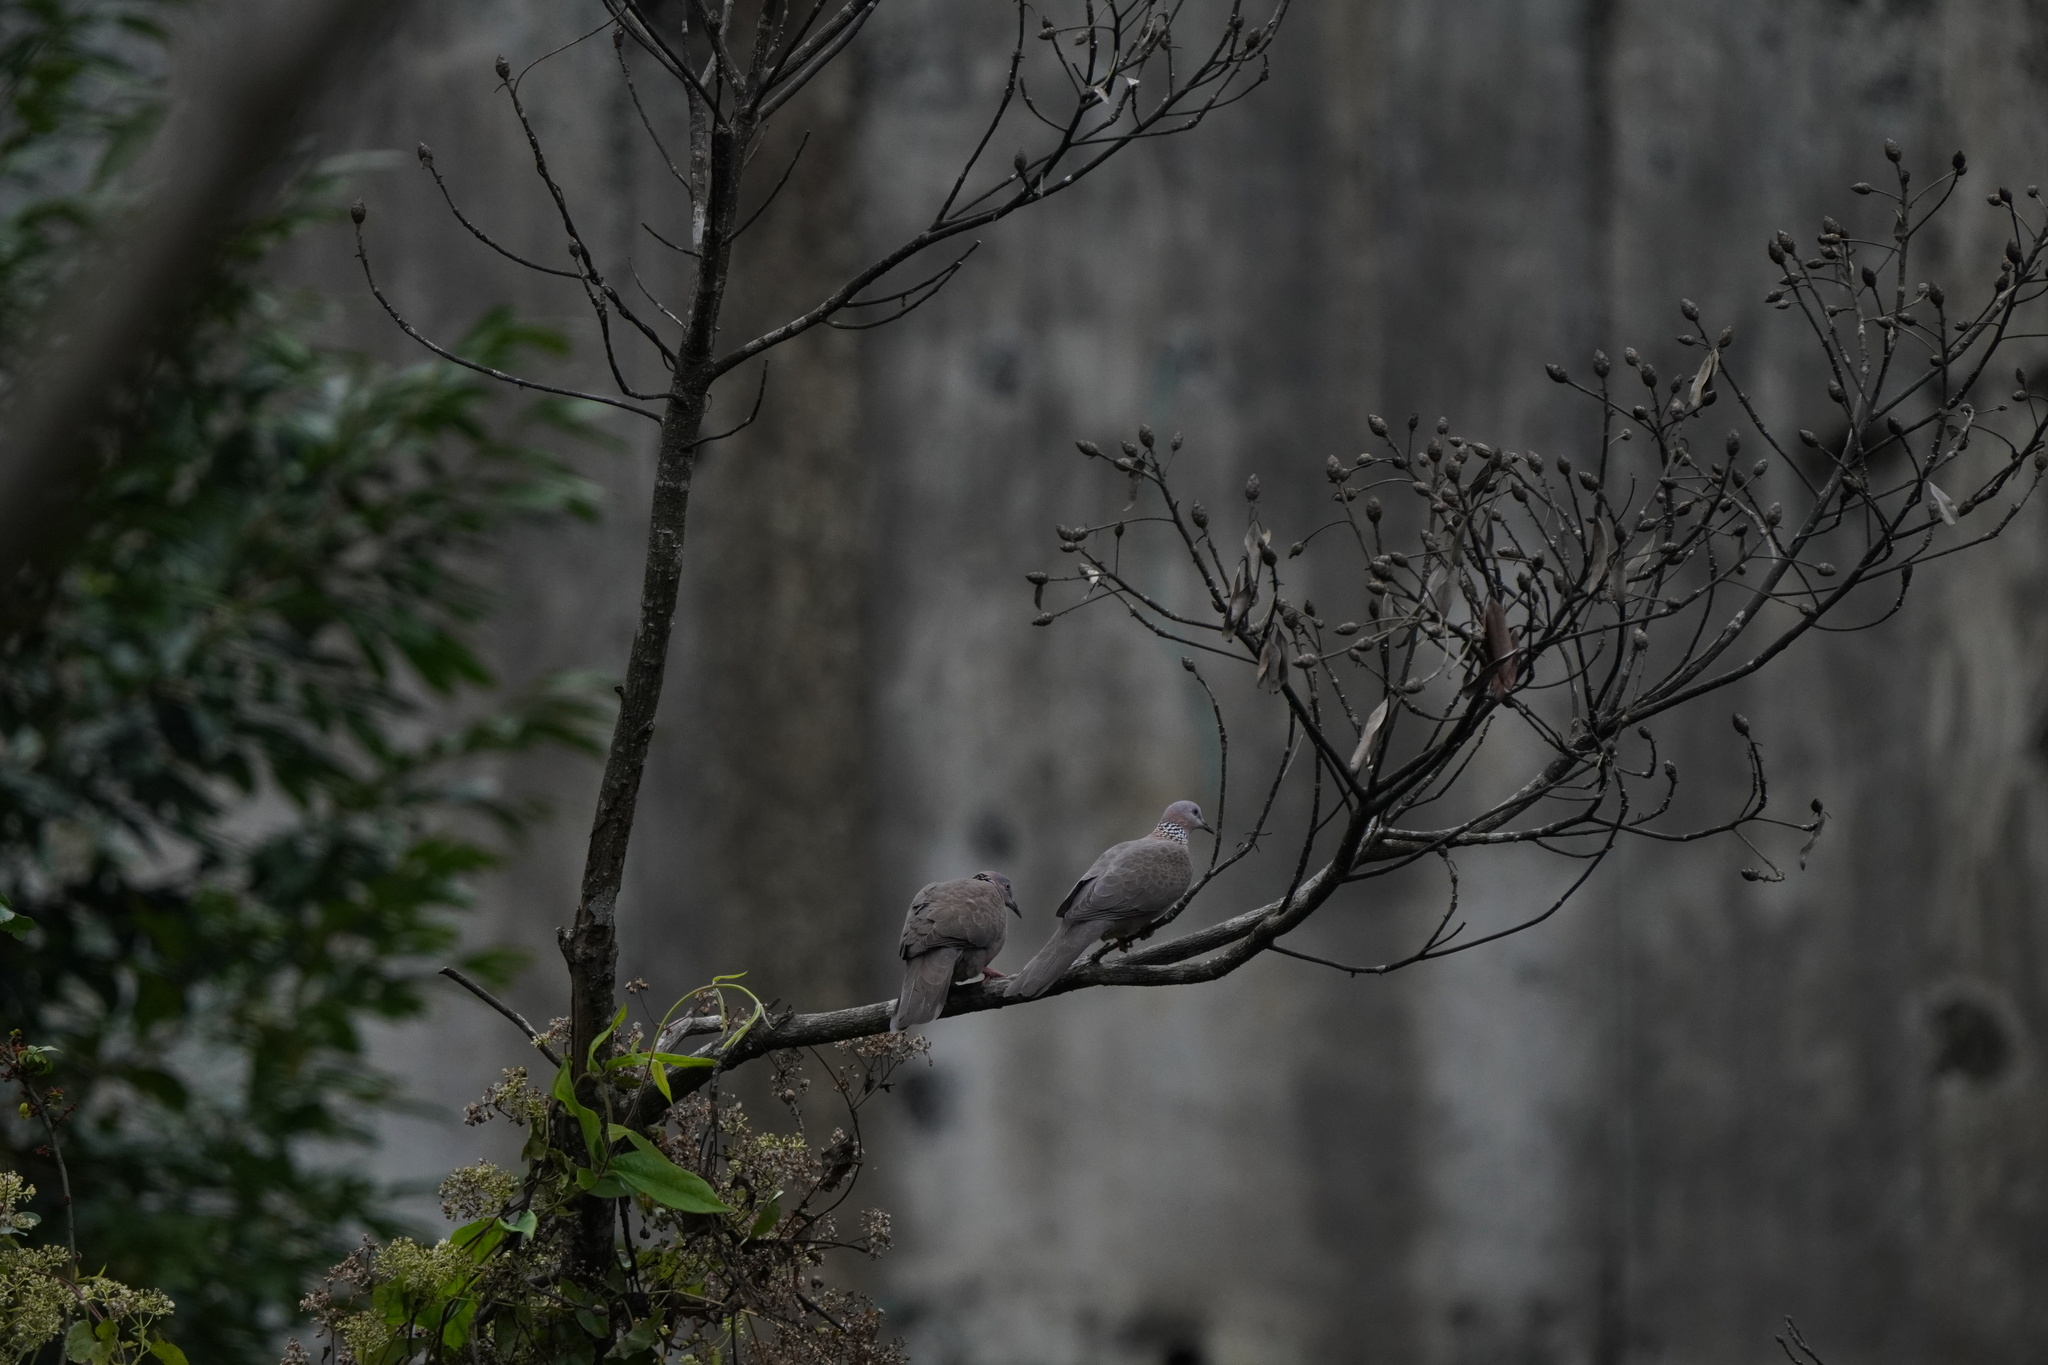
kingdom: Animalia
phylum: Chordata
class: Aves
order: Columbiformes
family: Columbidae
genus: Spilopelia
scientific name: Spilopelia chinensis
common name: Spotted dove
